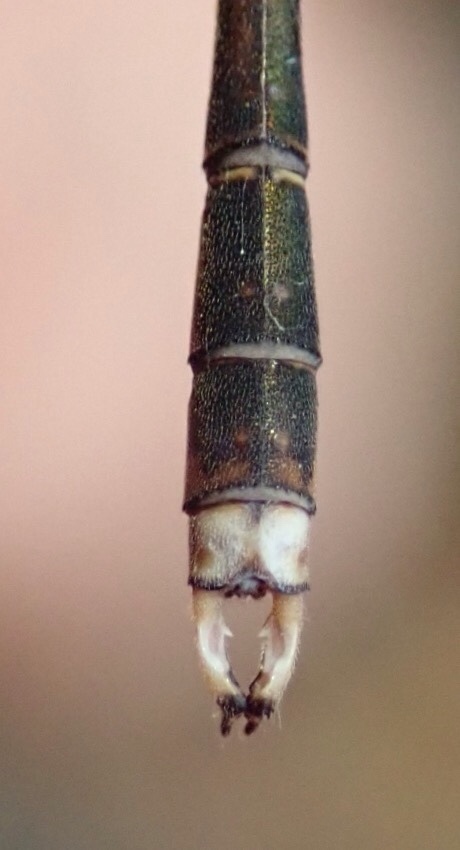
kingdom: Animalia
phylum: Arthropoda
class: Insecta
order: Odonata
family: Lestidae
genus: Lestes
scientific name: Lestes pinheyi
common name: Pinhey's spreadwing
